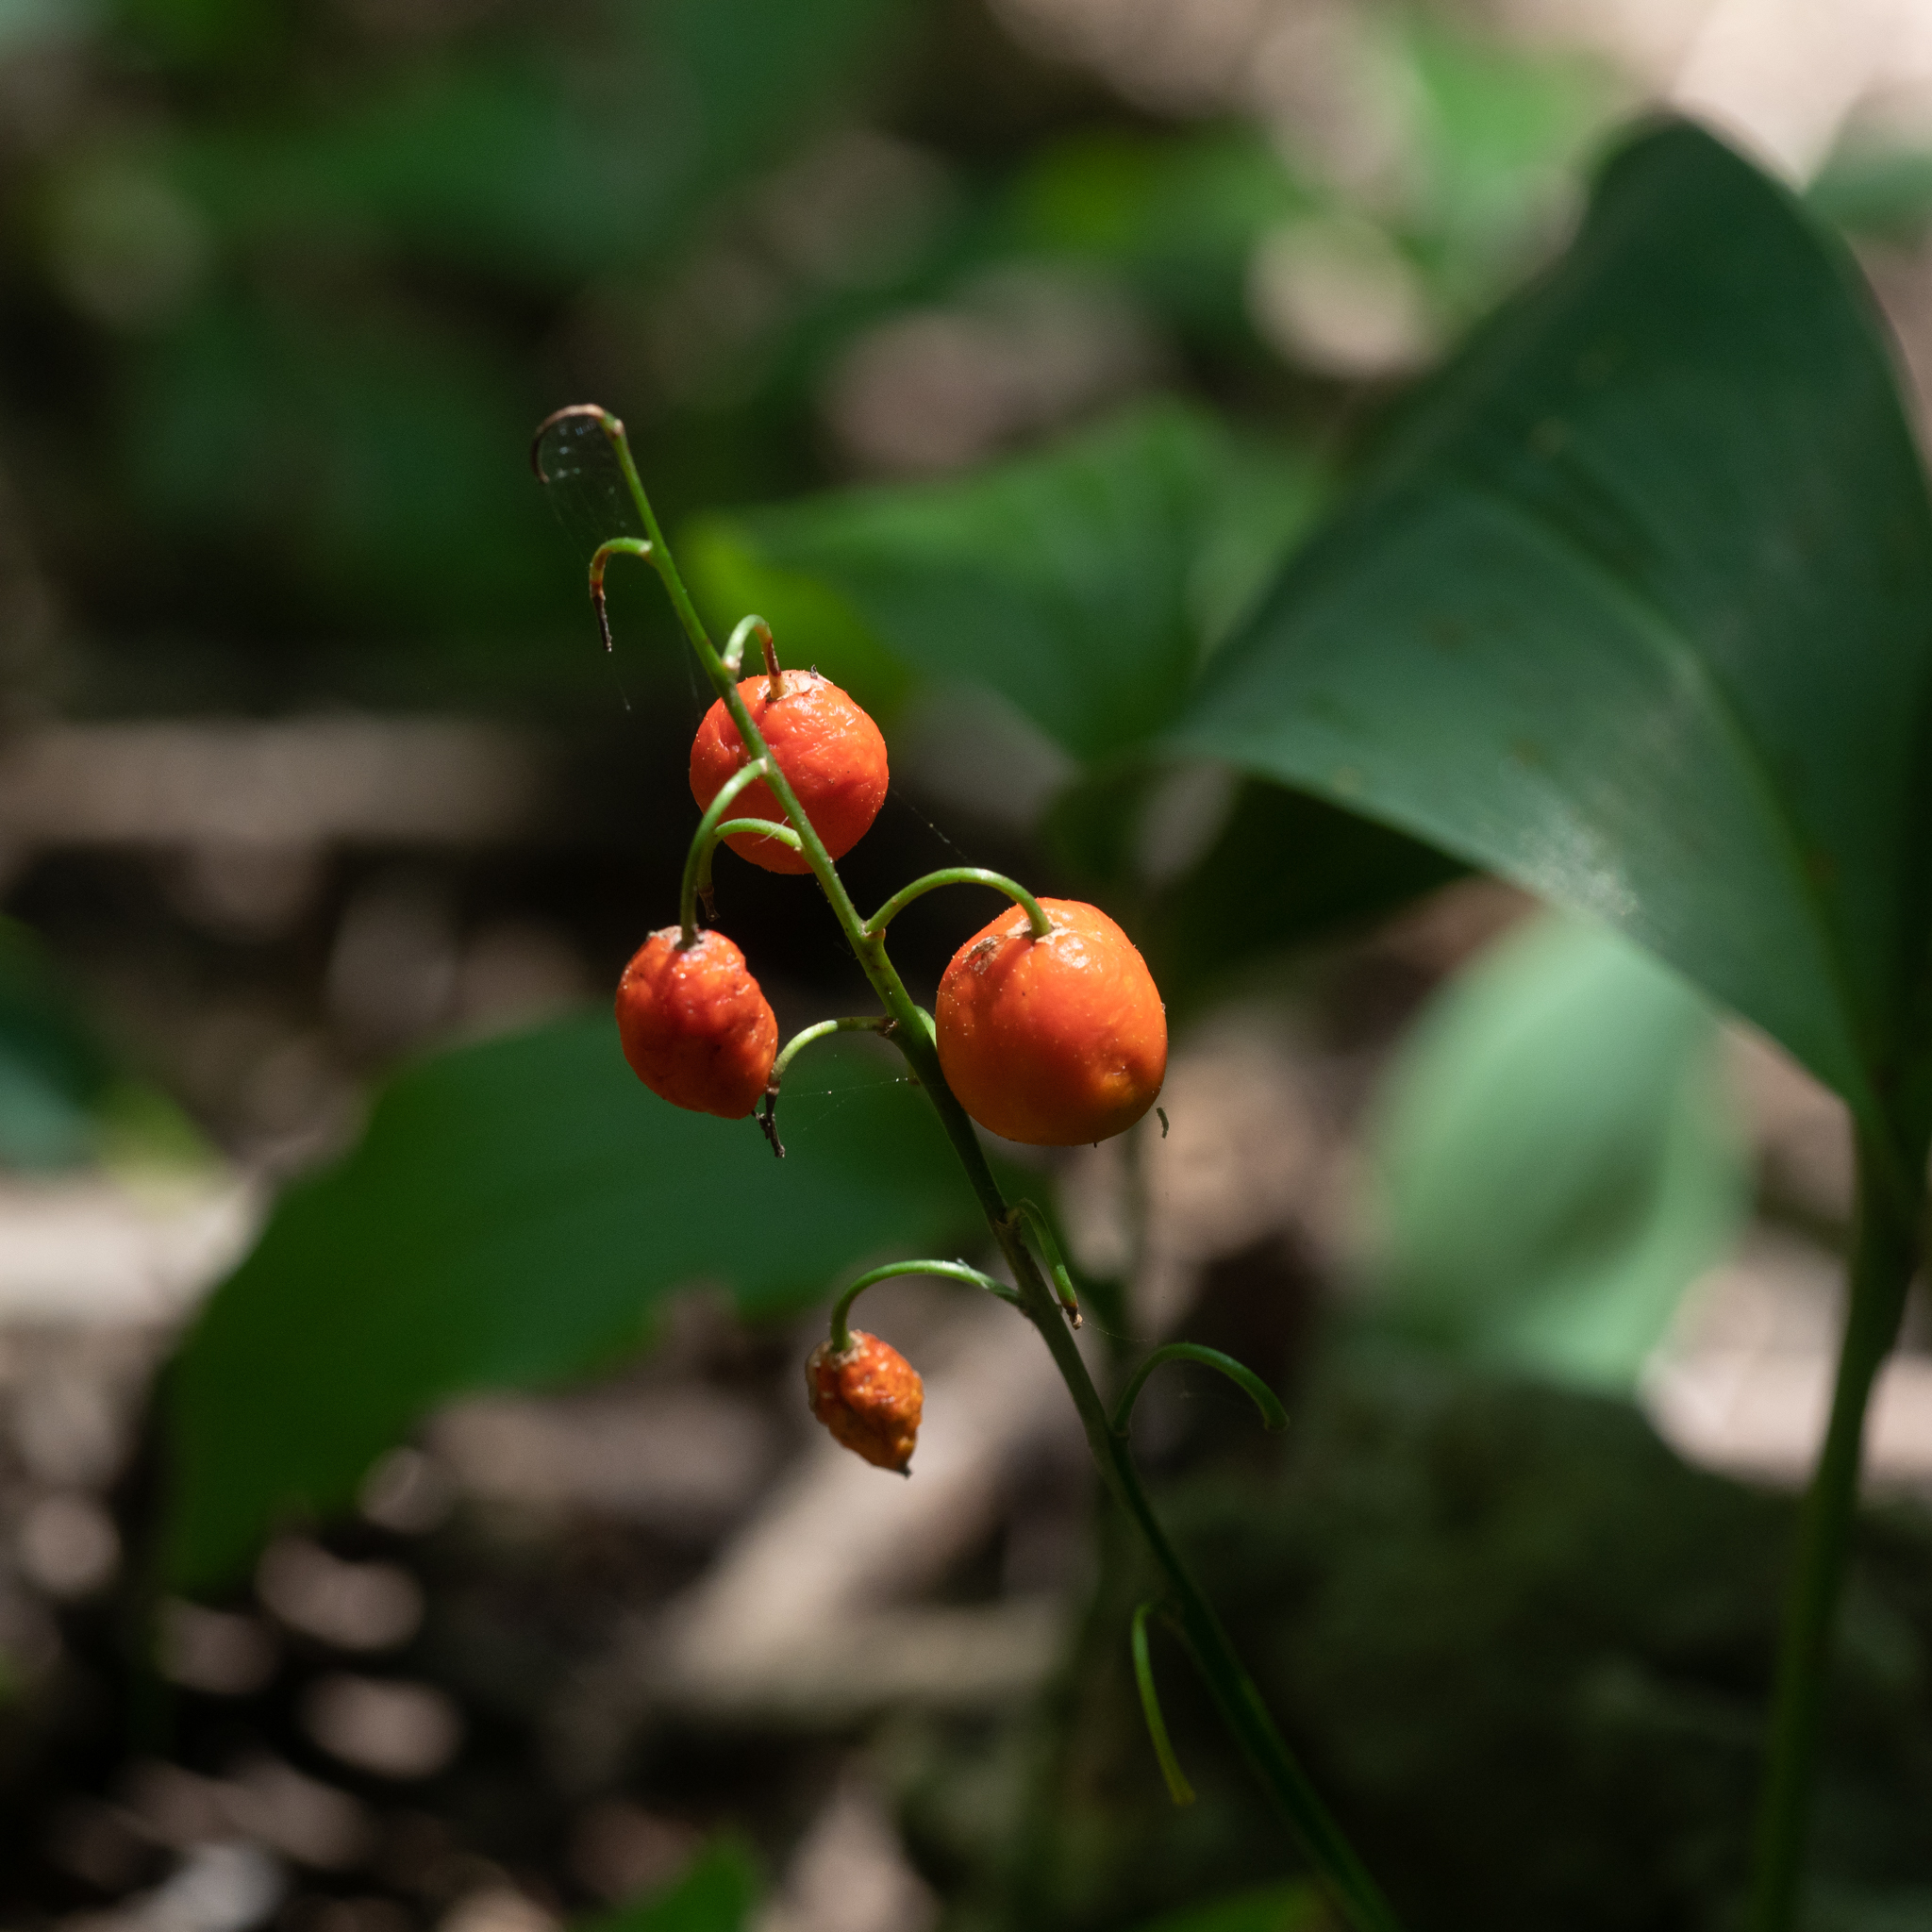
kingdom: Plantae
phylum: Tracheophyta
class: Liliopsida
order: Asparagales
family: Asparagaceae
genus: Convallaria
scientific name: Convallaria majalis
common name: Lily-of-the-valley
